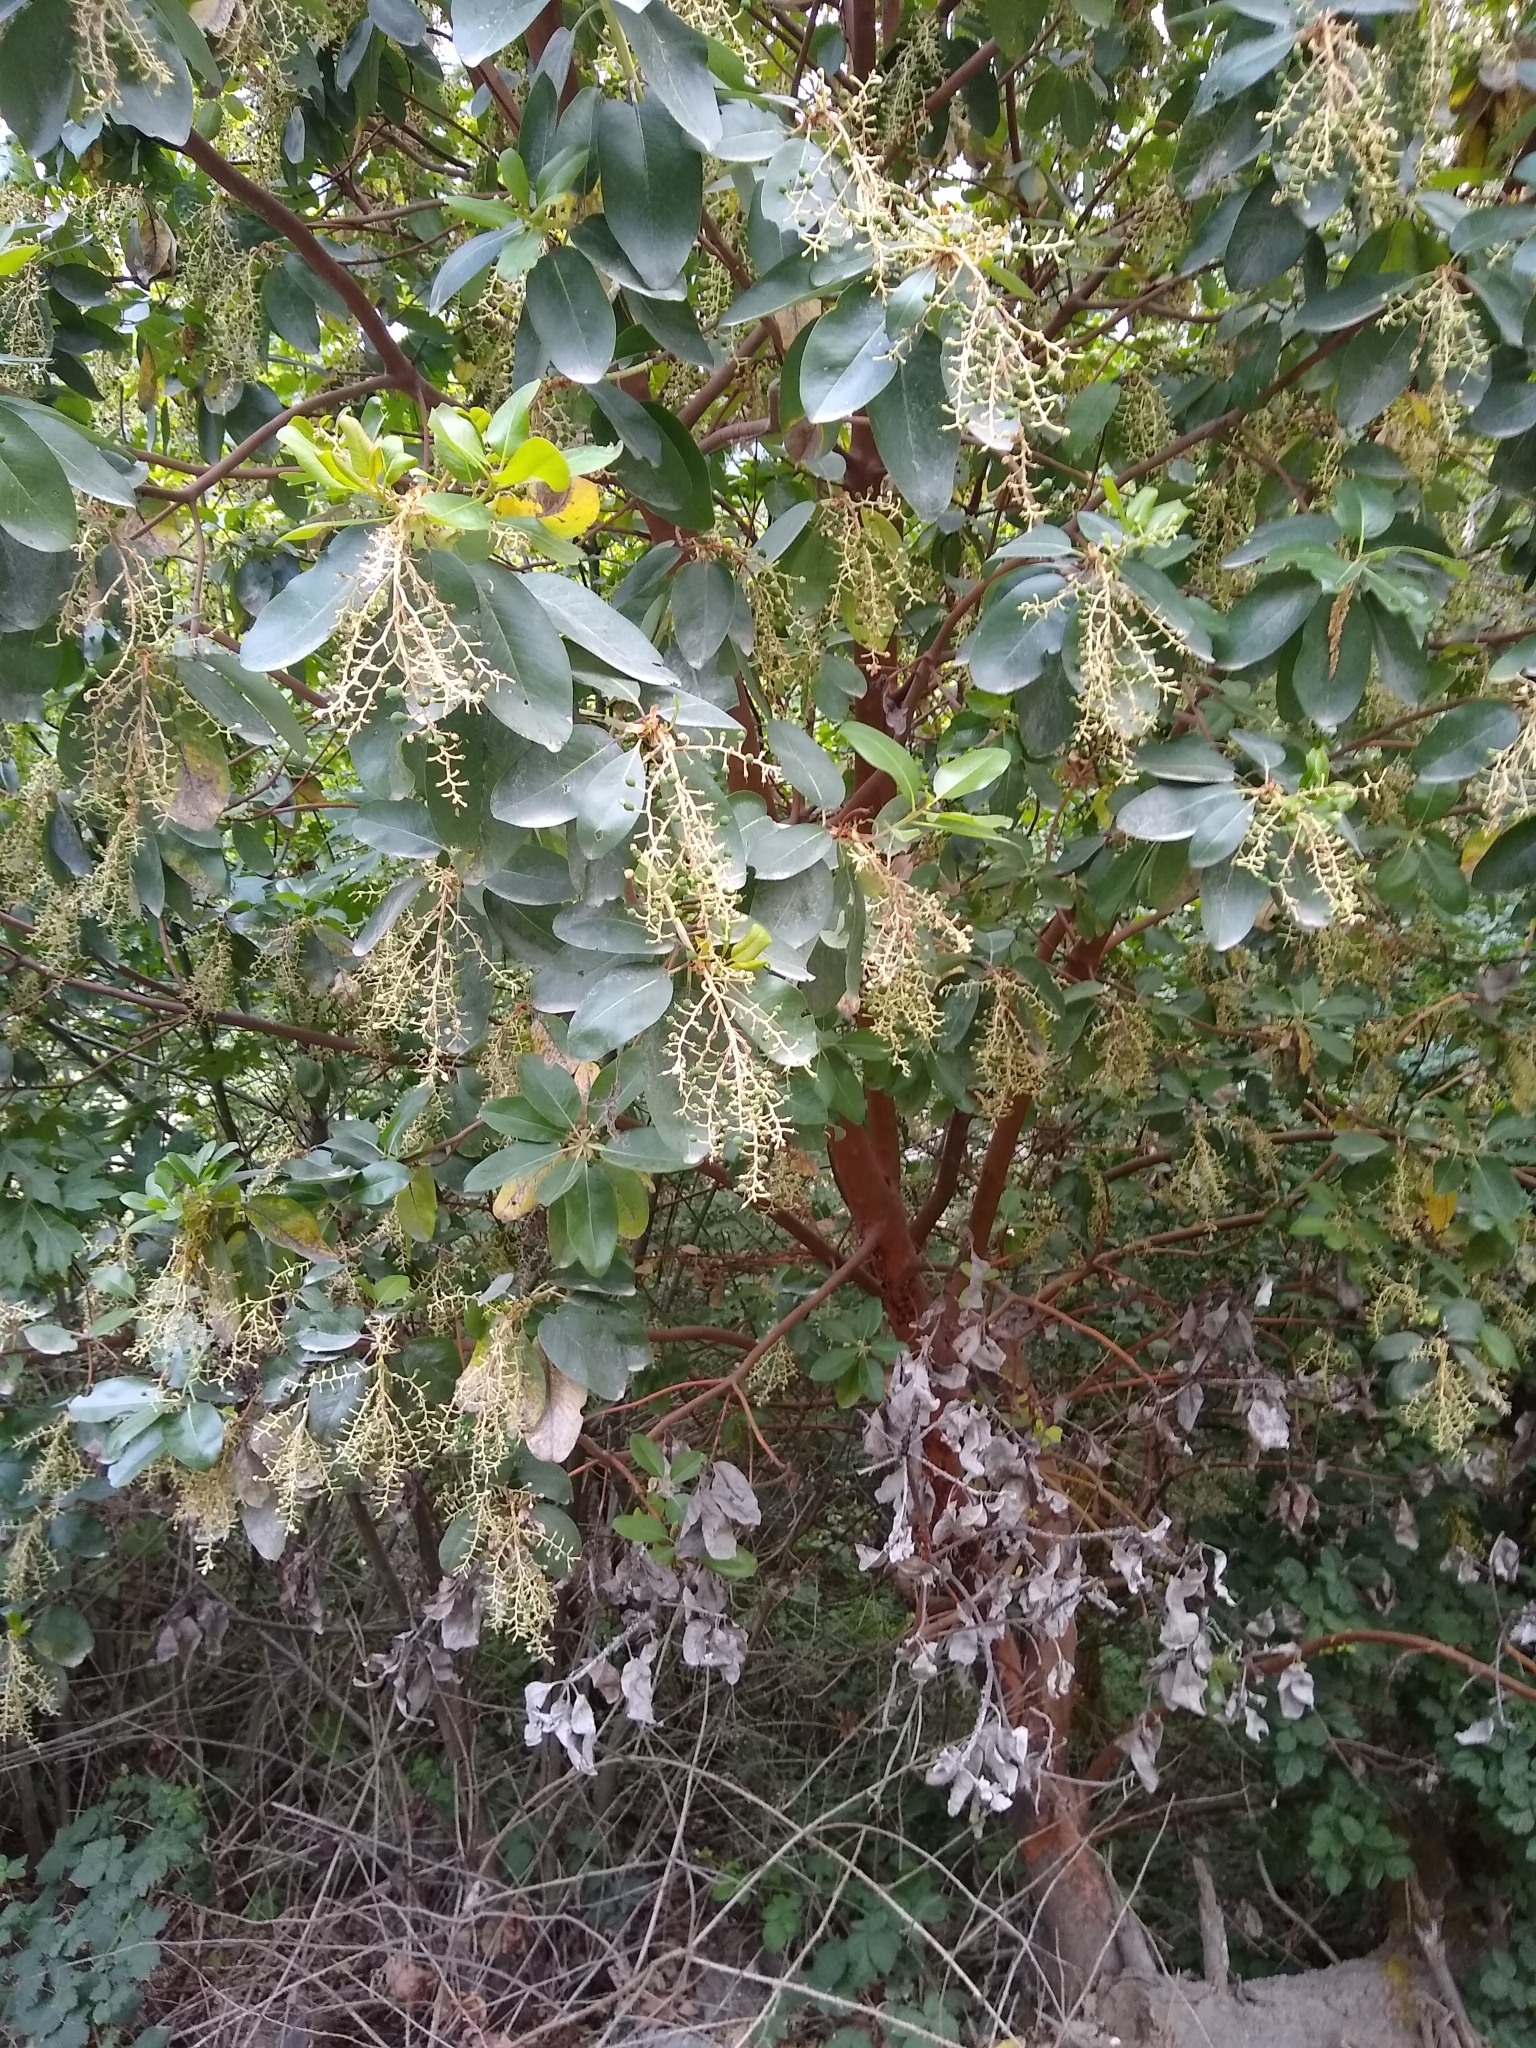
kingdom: Plantae
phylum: Tracheophyta
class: Magnoliopsida
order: Ericales
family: Ericaceae
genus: Arbutus
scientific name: Arbutus menziesii
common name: Pacific madrone
